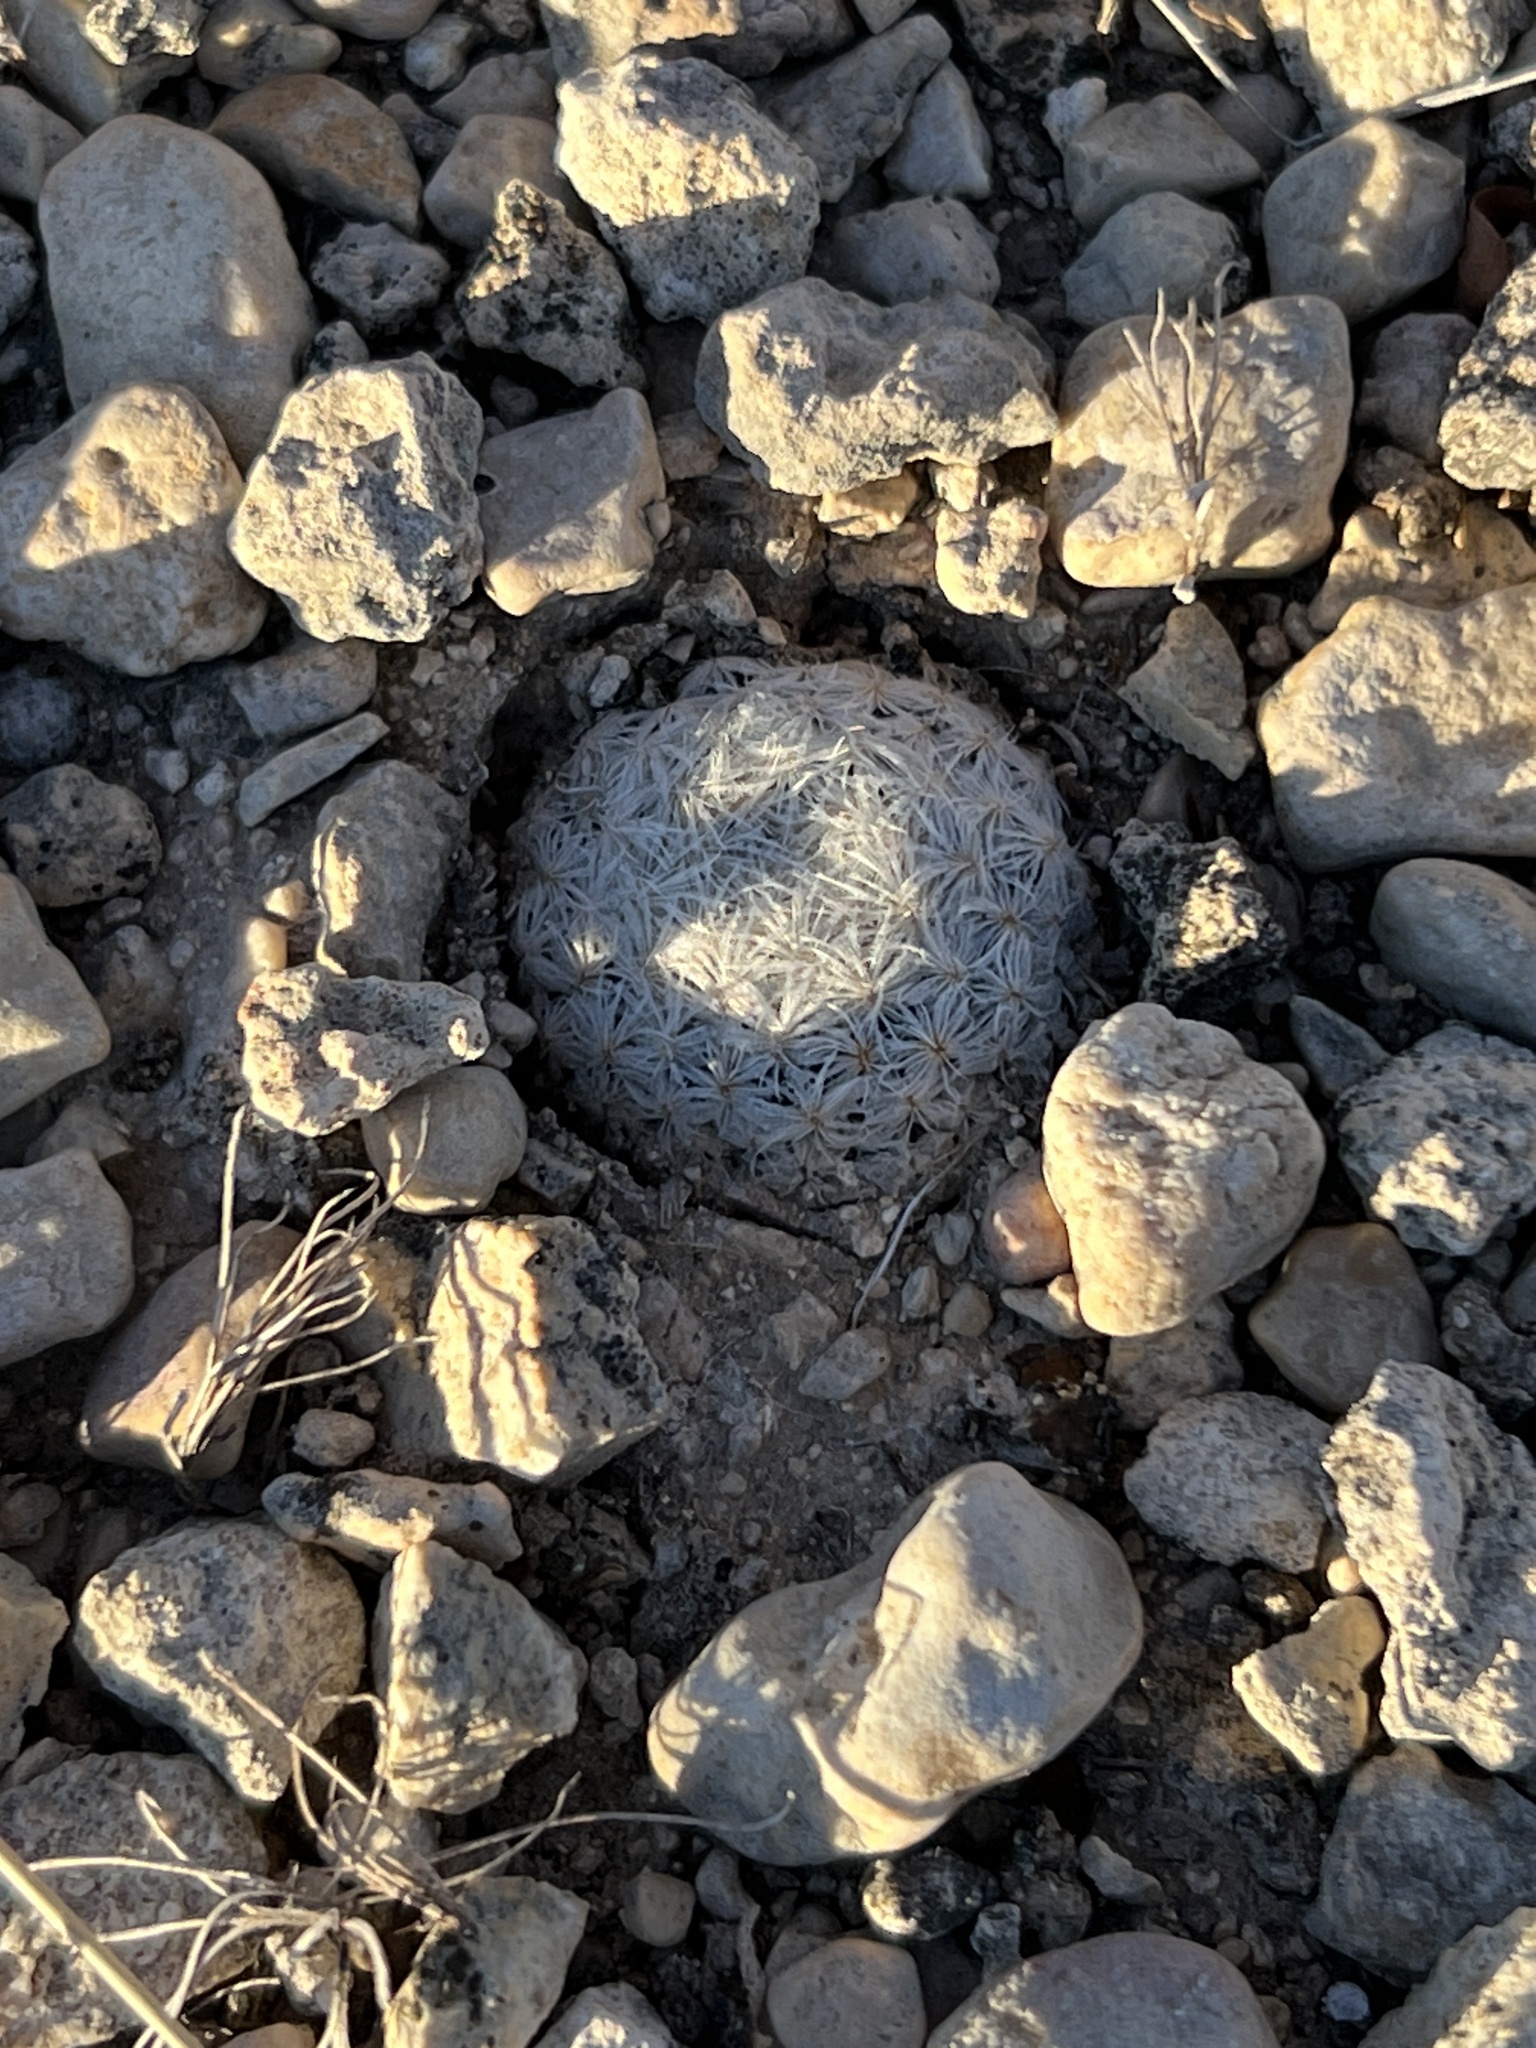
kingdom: Plantae
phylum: Tracheophyta
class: Magnoliopsida
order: Caryophyllales
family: Cactaceae
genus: Mammillaria
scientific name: Mammillaria lasiacantha
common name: Lace-spine nipple cactus
